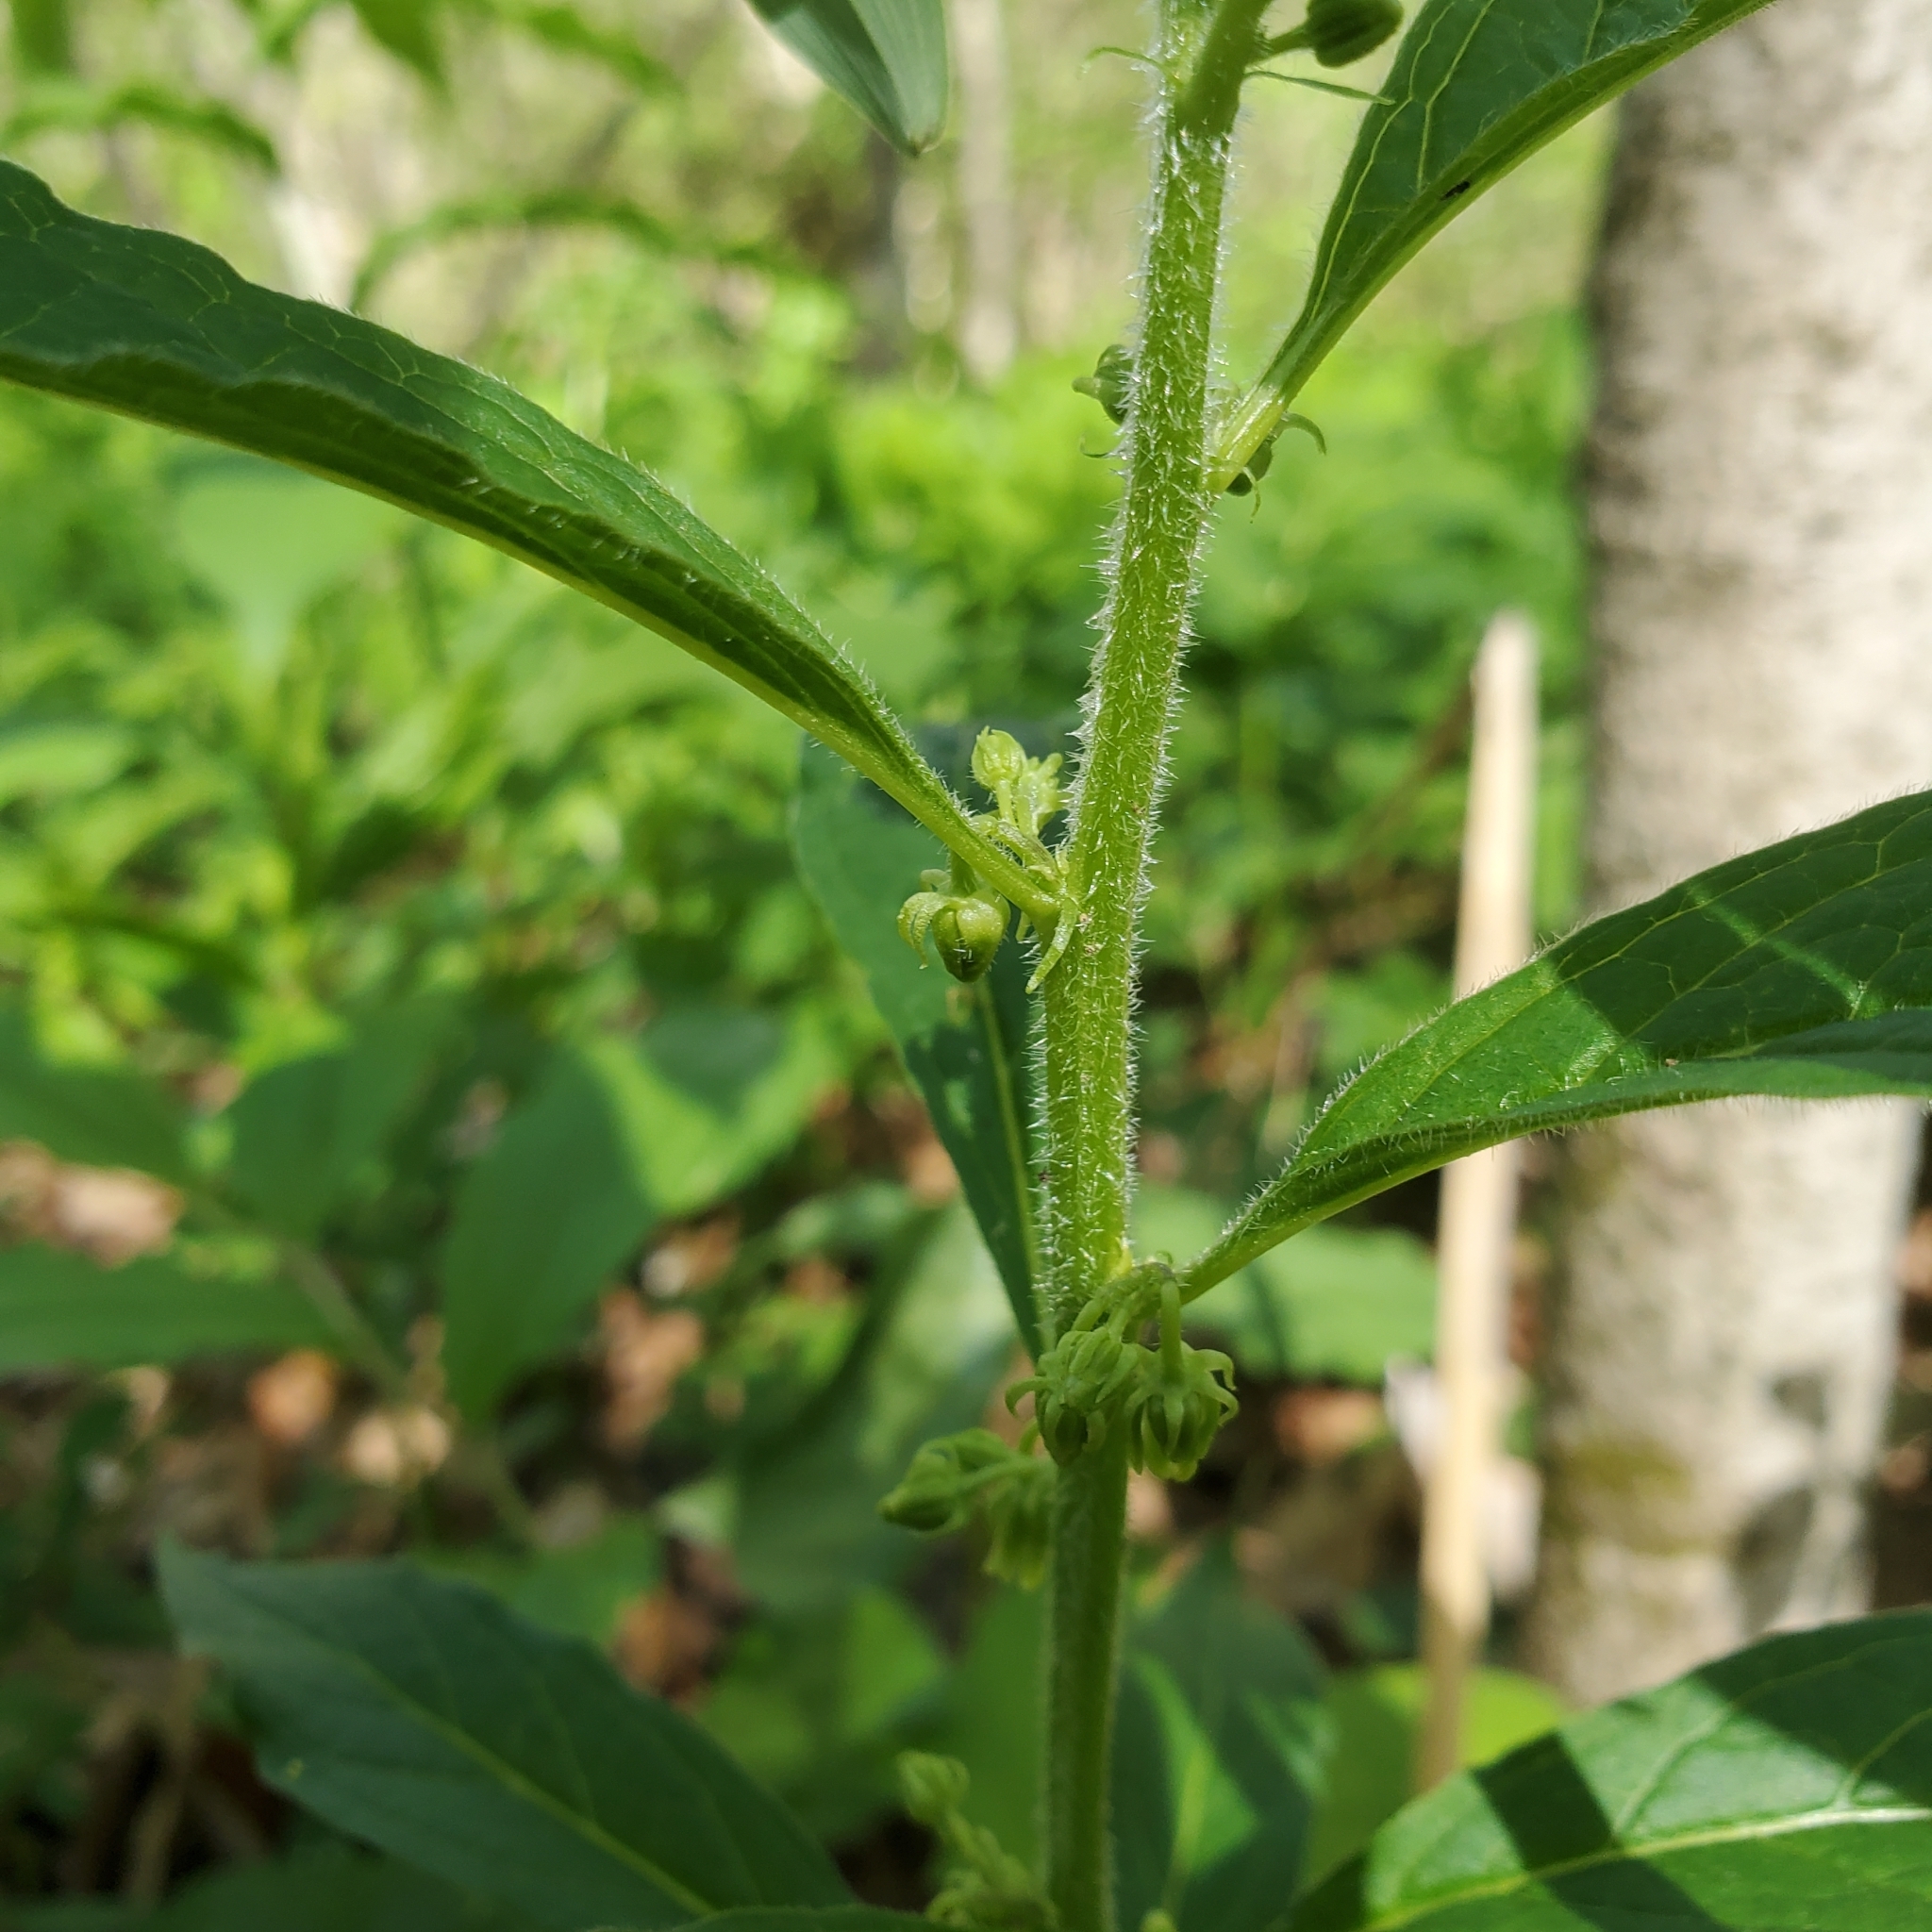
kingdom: Plantae
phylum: Tracheophyta
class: Magnoliopsida
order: Malpighiales
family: Violaceae
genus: Cubelium
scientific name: Cubelium concolor
